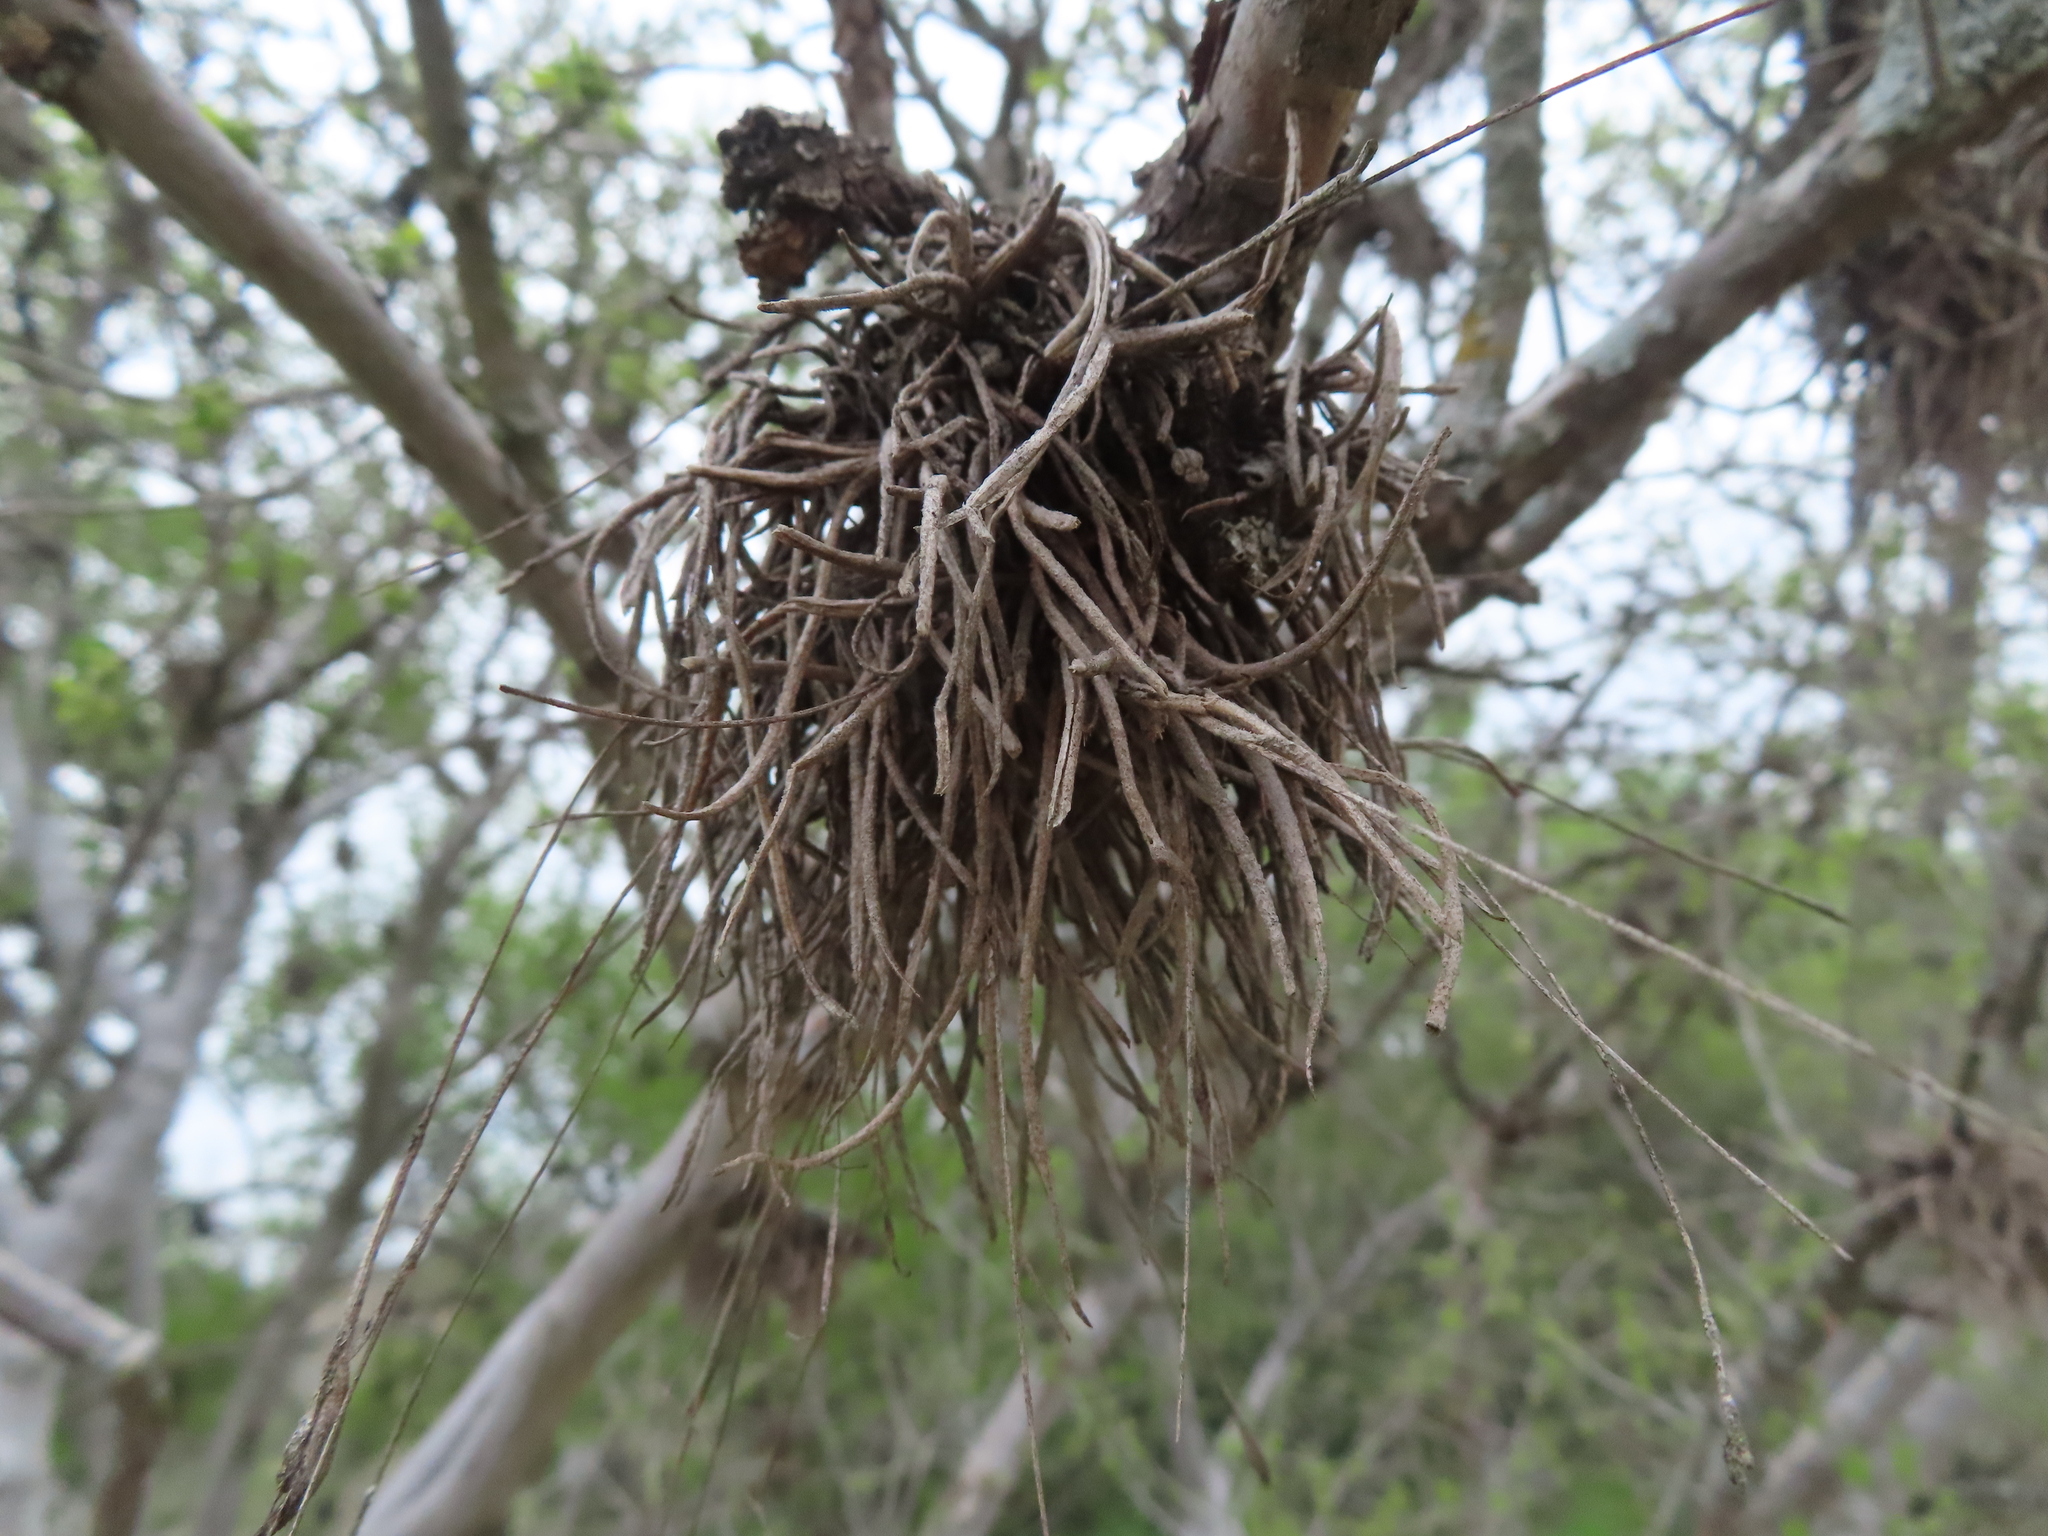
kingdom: Plantae
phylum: Tracheophyta
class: Liliopsida
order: Poales
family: Bromeliaceae
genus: Tillandsia
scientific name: Tillandsia recurvata
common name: Small ballmoss
